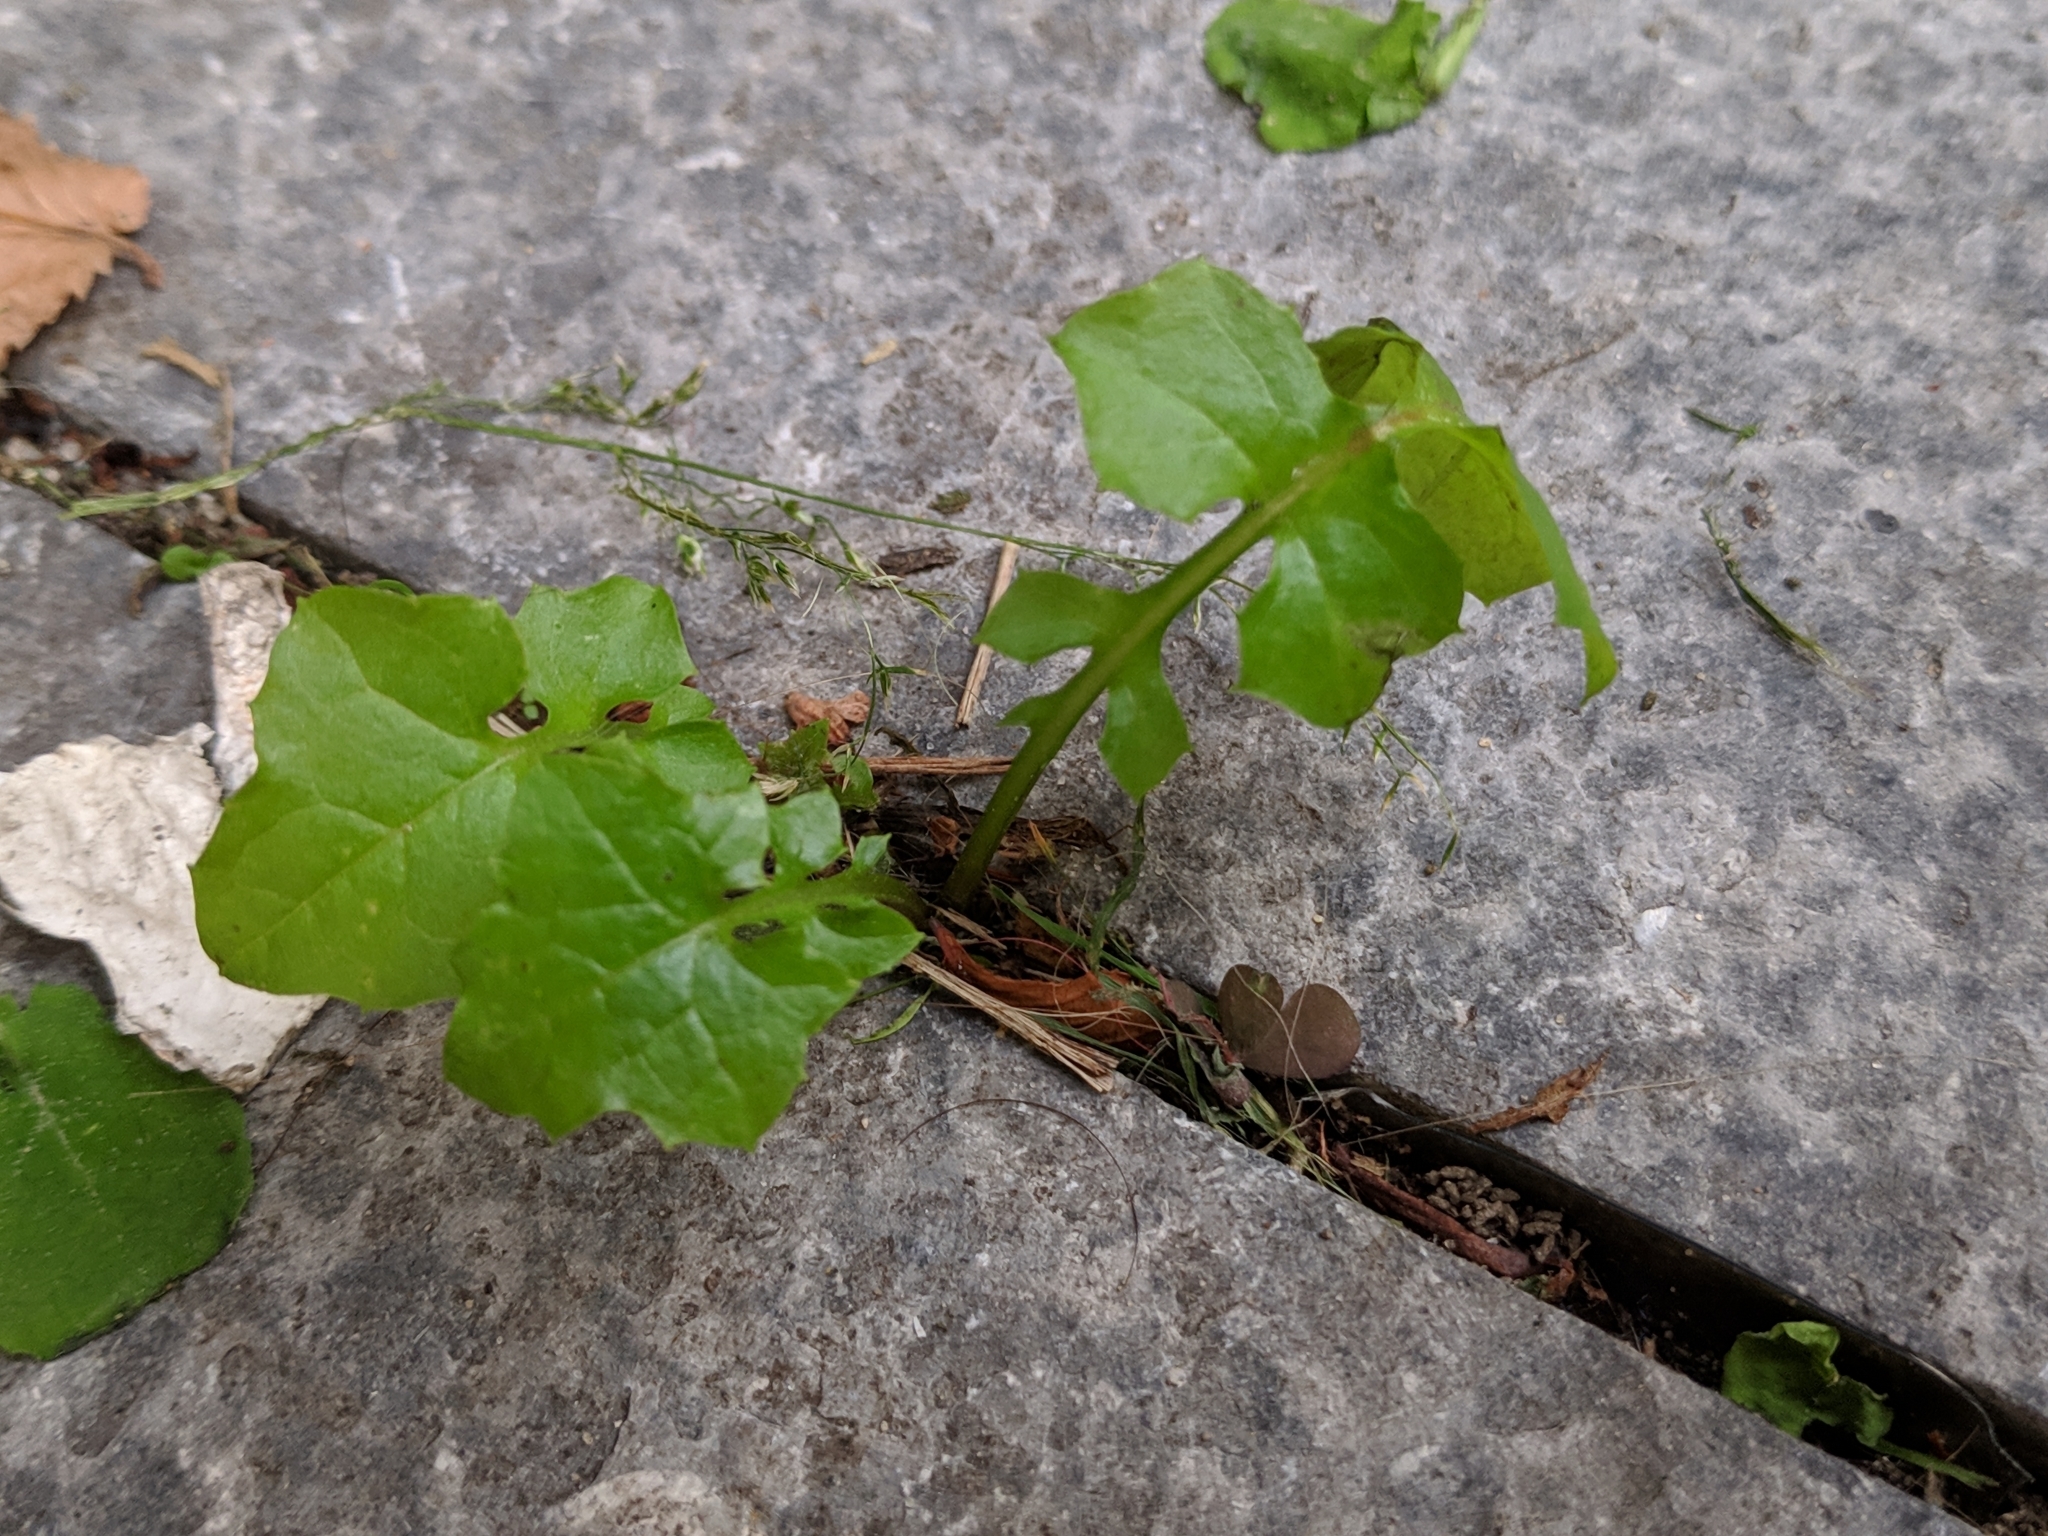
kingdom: Plantae
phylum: Tracheophyta
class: Magnoliopsida
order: Asterales
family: Asteraceae
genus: Mycelis
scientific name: Mycelis muralis
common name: Wall lettuce
